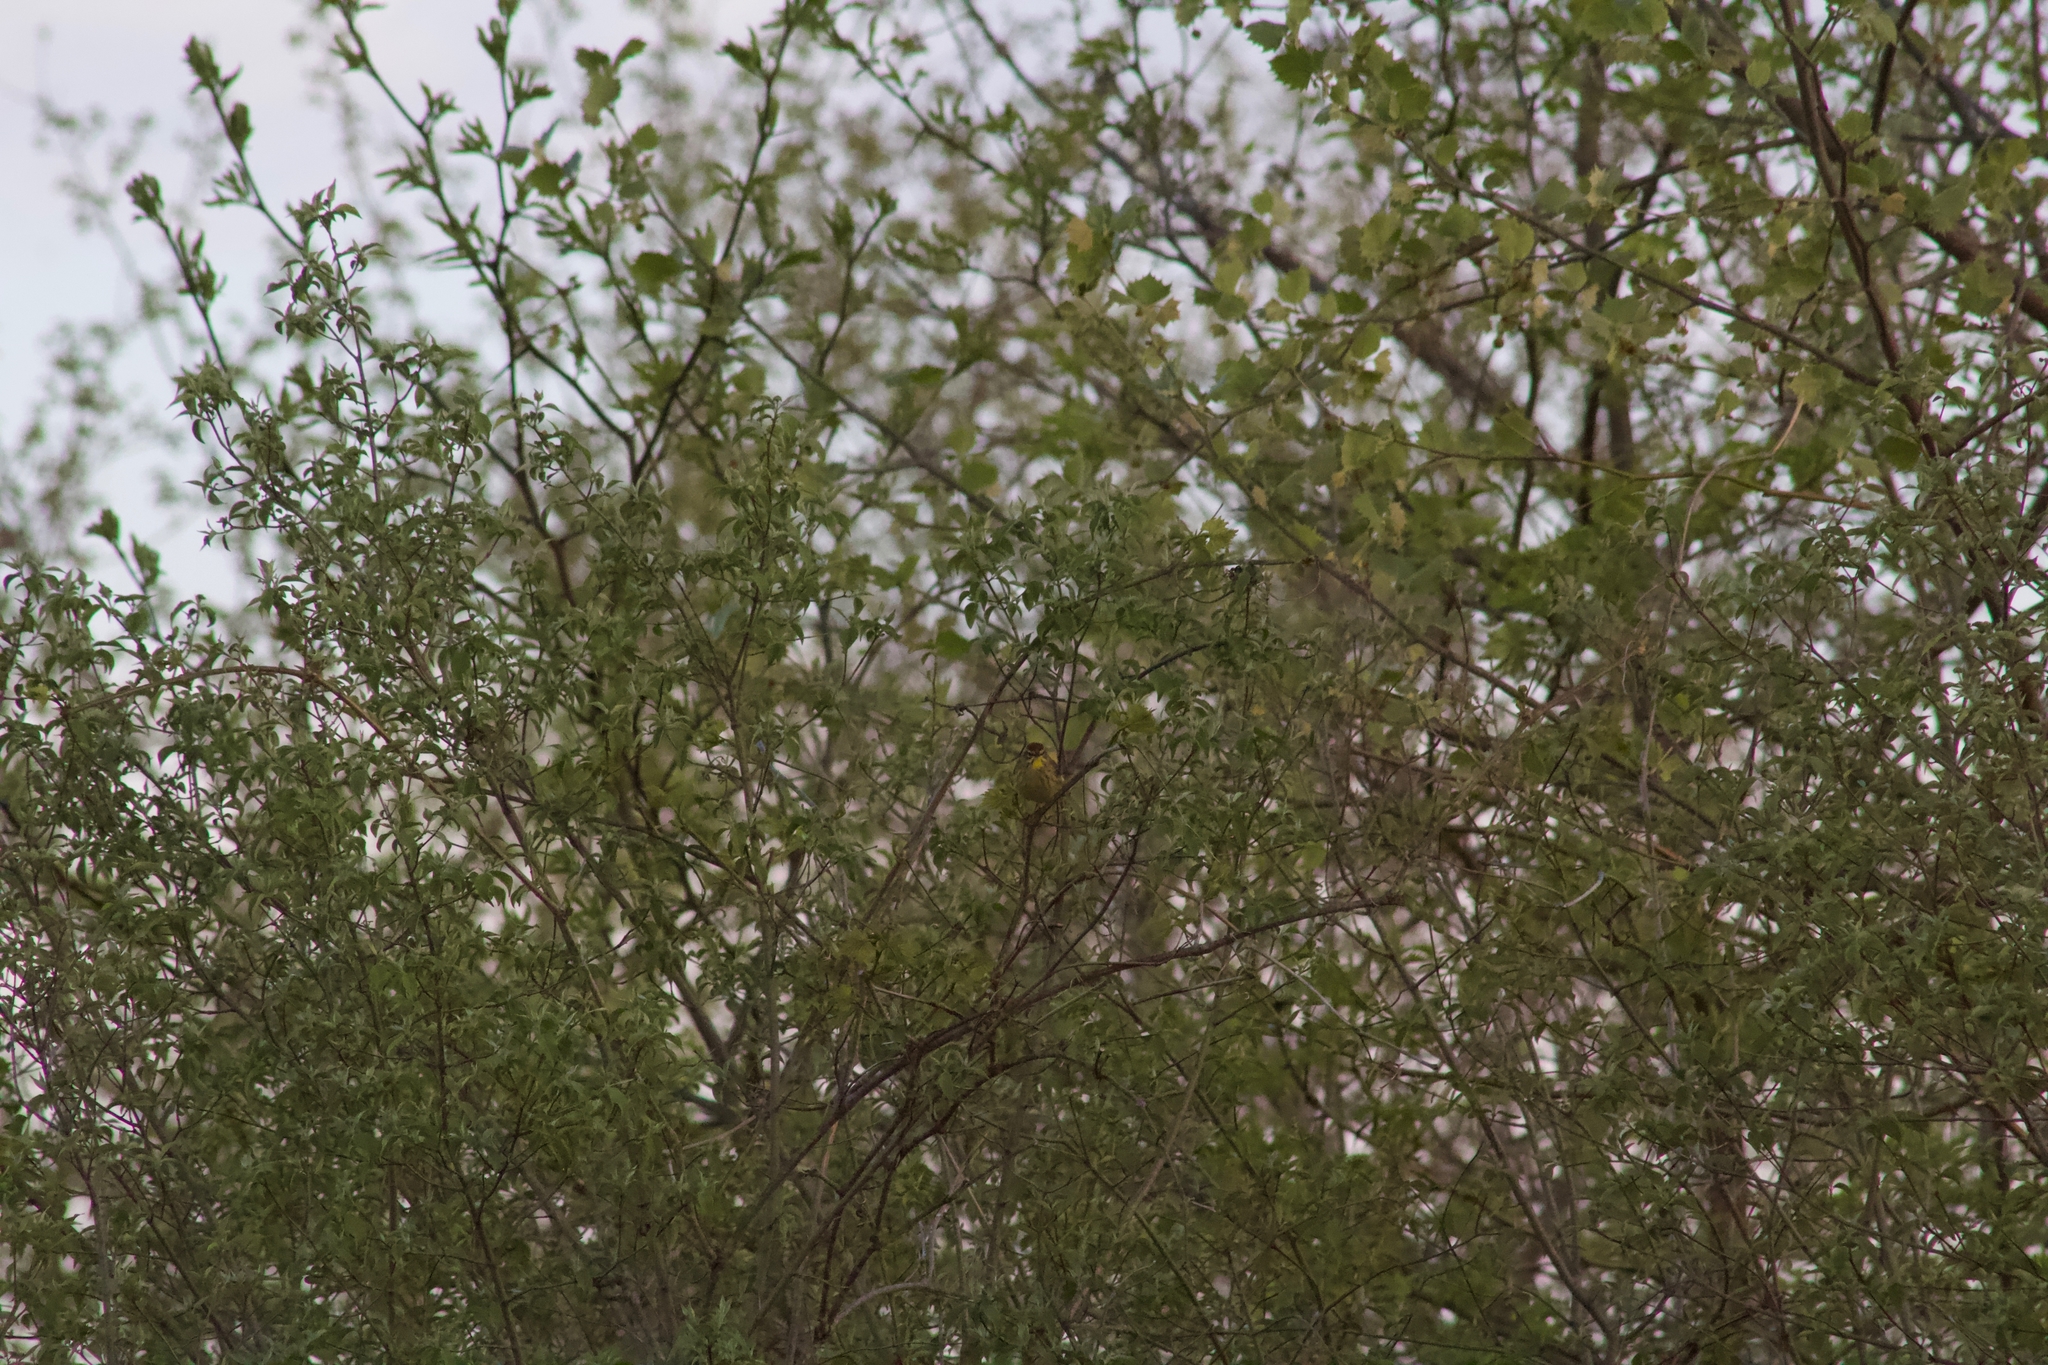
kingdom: Animalia
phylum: Chordata
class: Aves
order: Passeriformes
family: Parulidae
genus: Setophaga
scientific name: Setophaga palmarum
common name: Palm warbler
